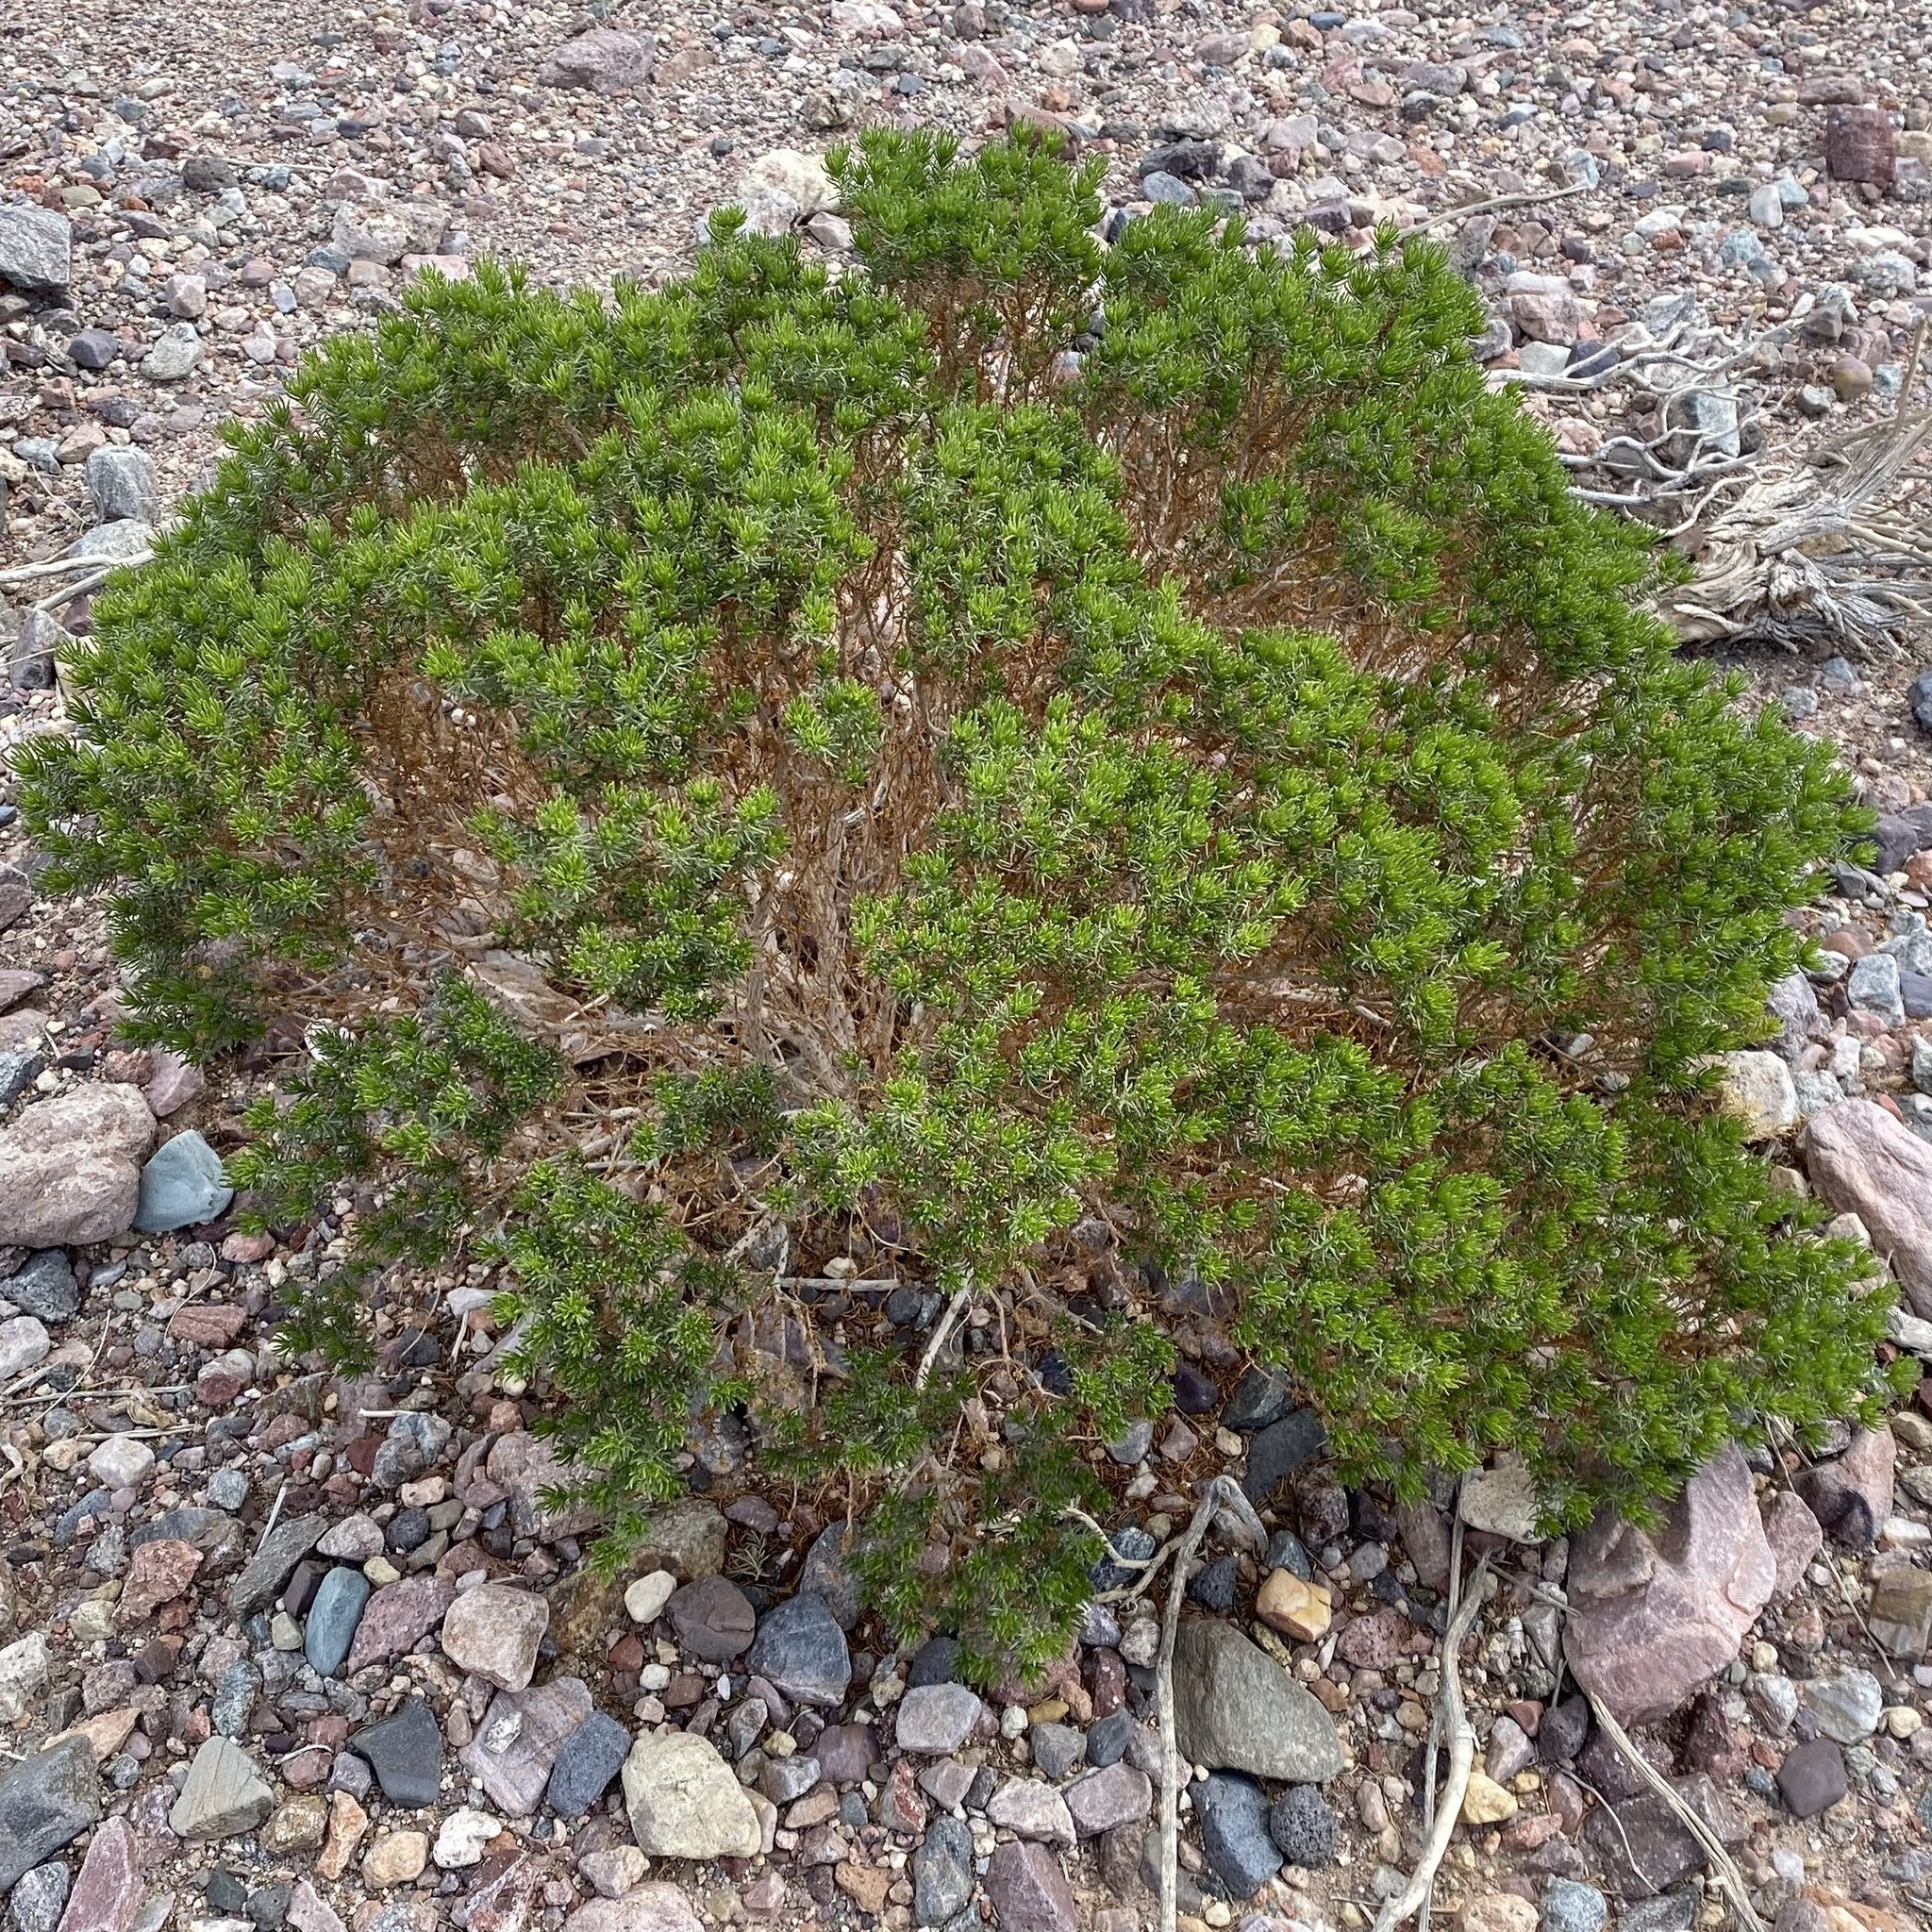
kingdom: Plantae
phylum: Tracheophyta
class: Magnoliopsida
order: Asterales
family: Asteraceae
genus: Peucephyllum
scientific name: Peucephyllum schottii
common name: Pygmy-cedar
